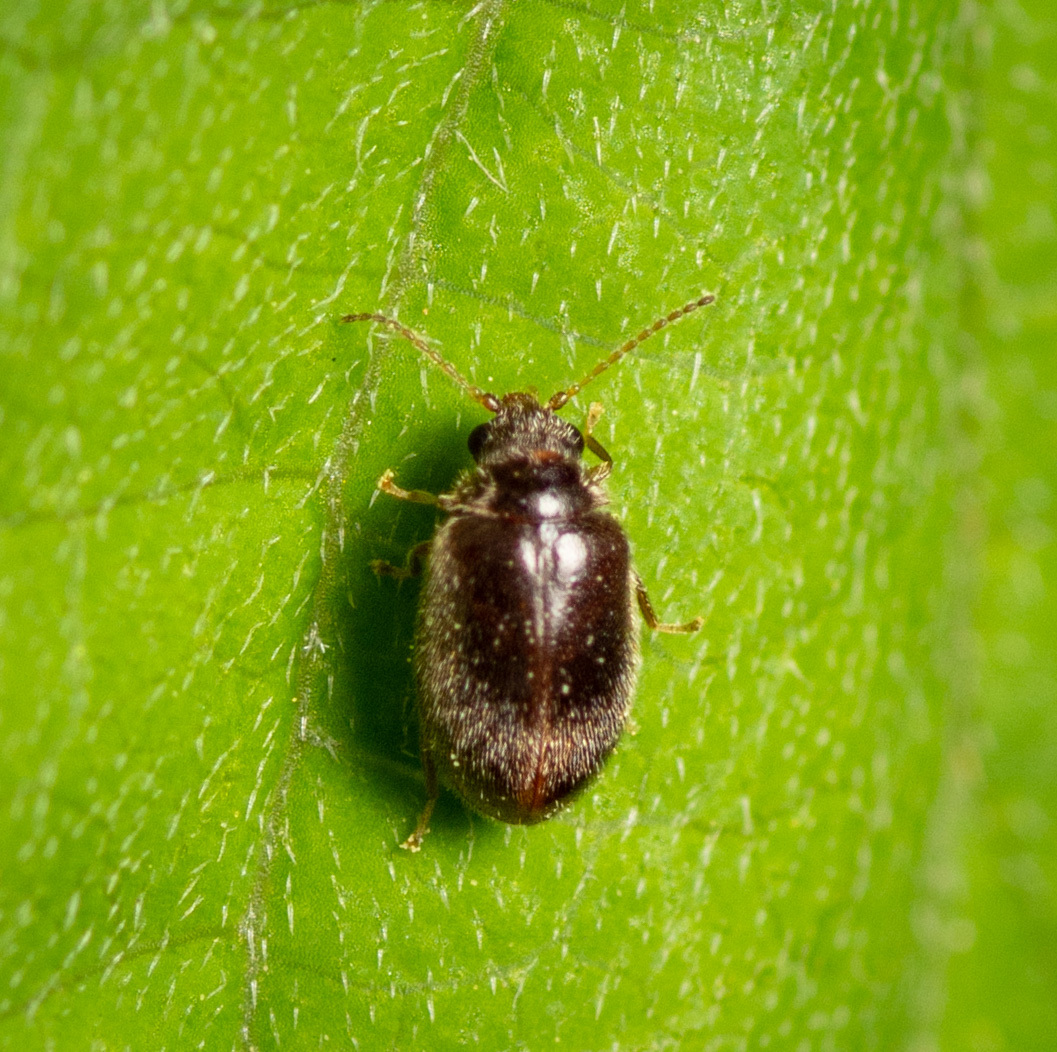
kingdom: Animalia
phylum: Arthropoda
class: Insecta
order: Coleoptera
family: Scirtidae
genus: Contacyphon
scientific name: Contacyphon
